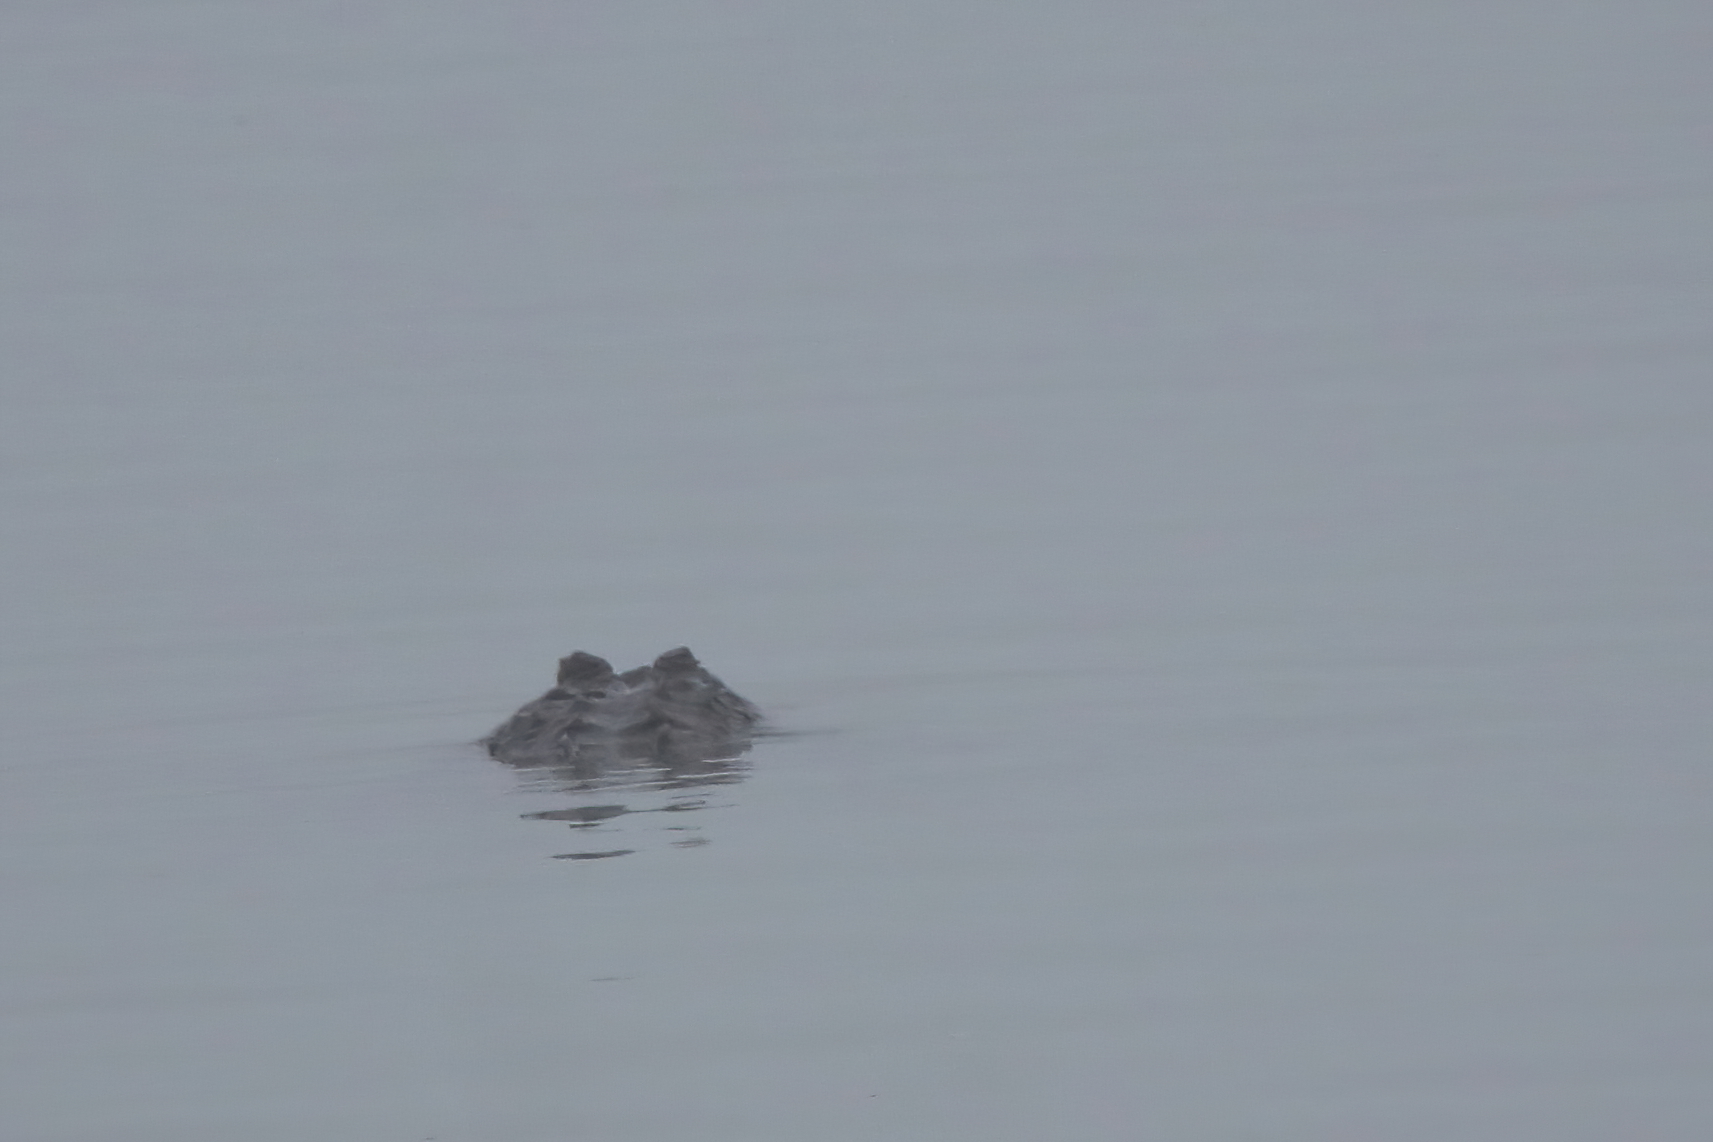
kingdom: Animalia
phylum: Chordata
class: Crocodylia
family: Alligatoridae
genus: Alligator
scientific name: Alligator mississippiensis
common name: American alligator
